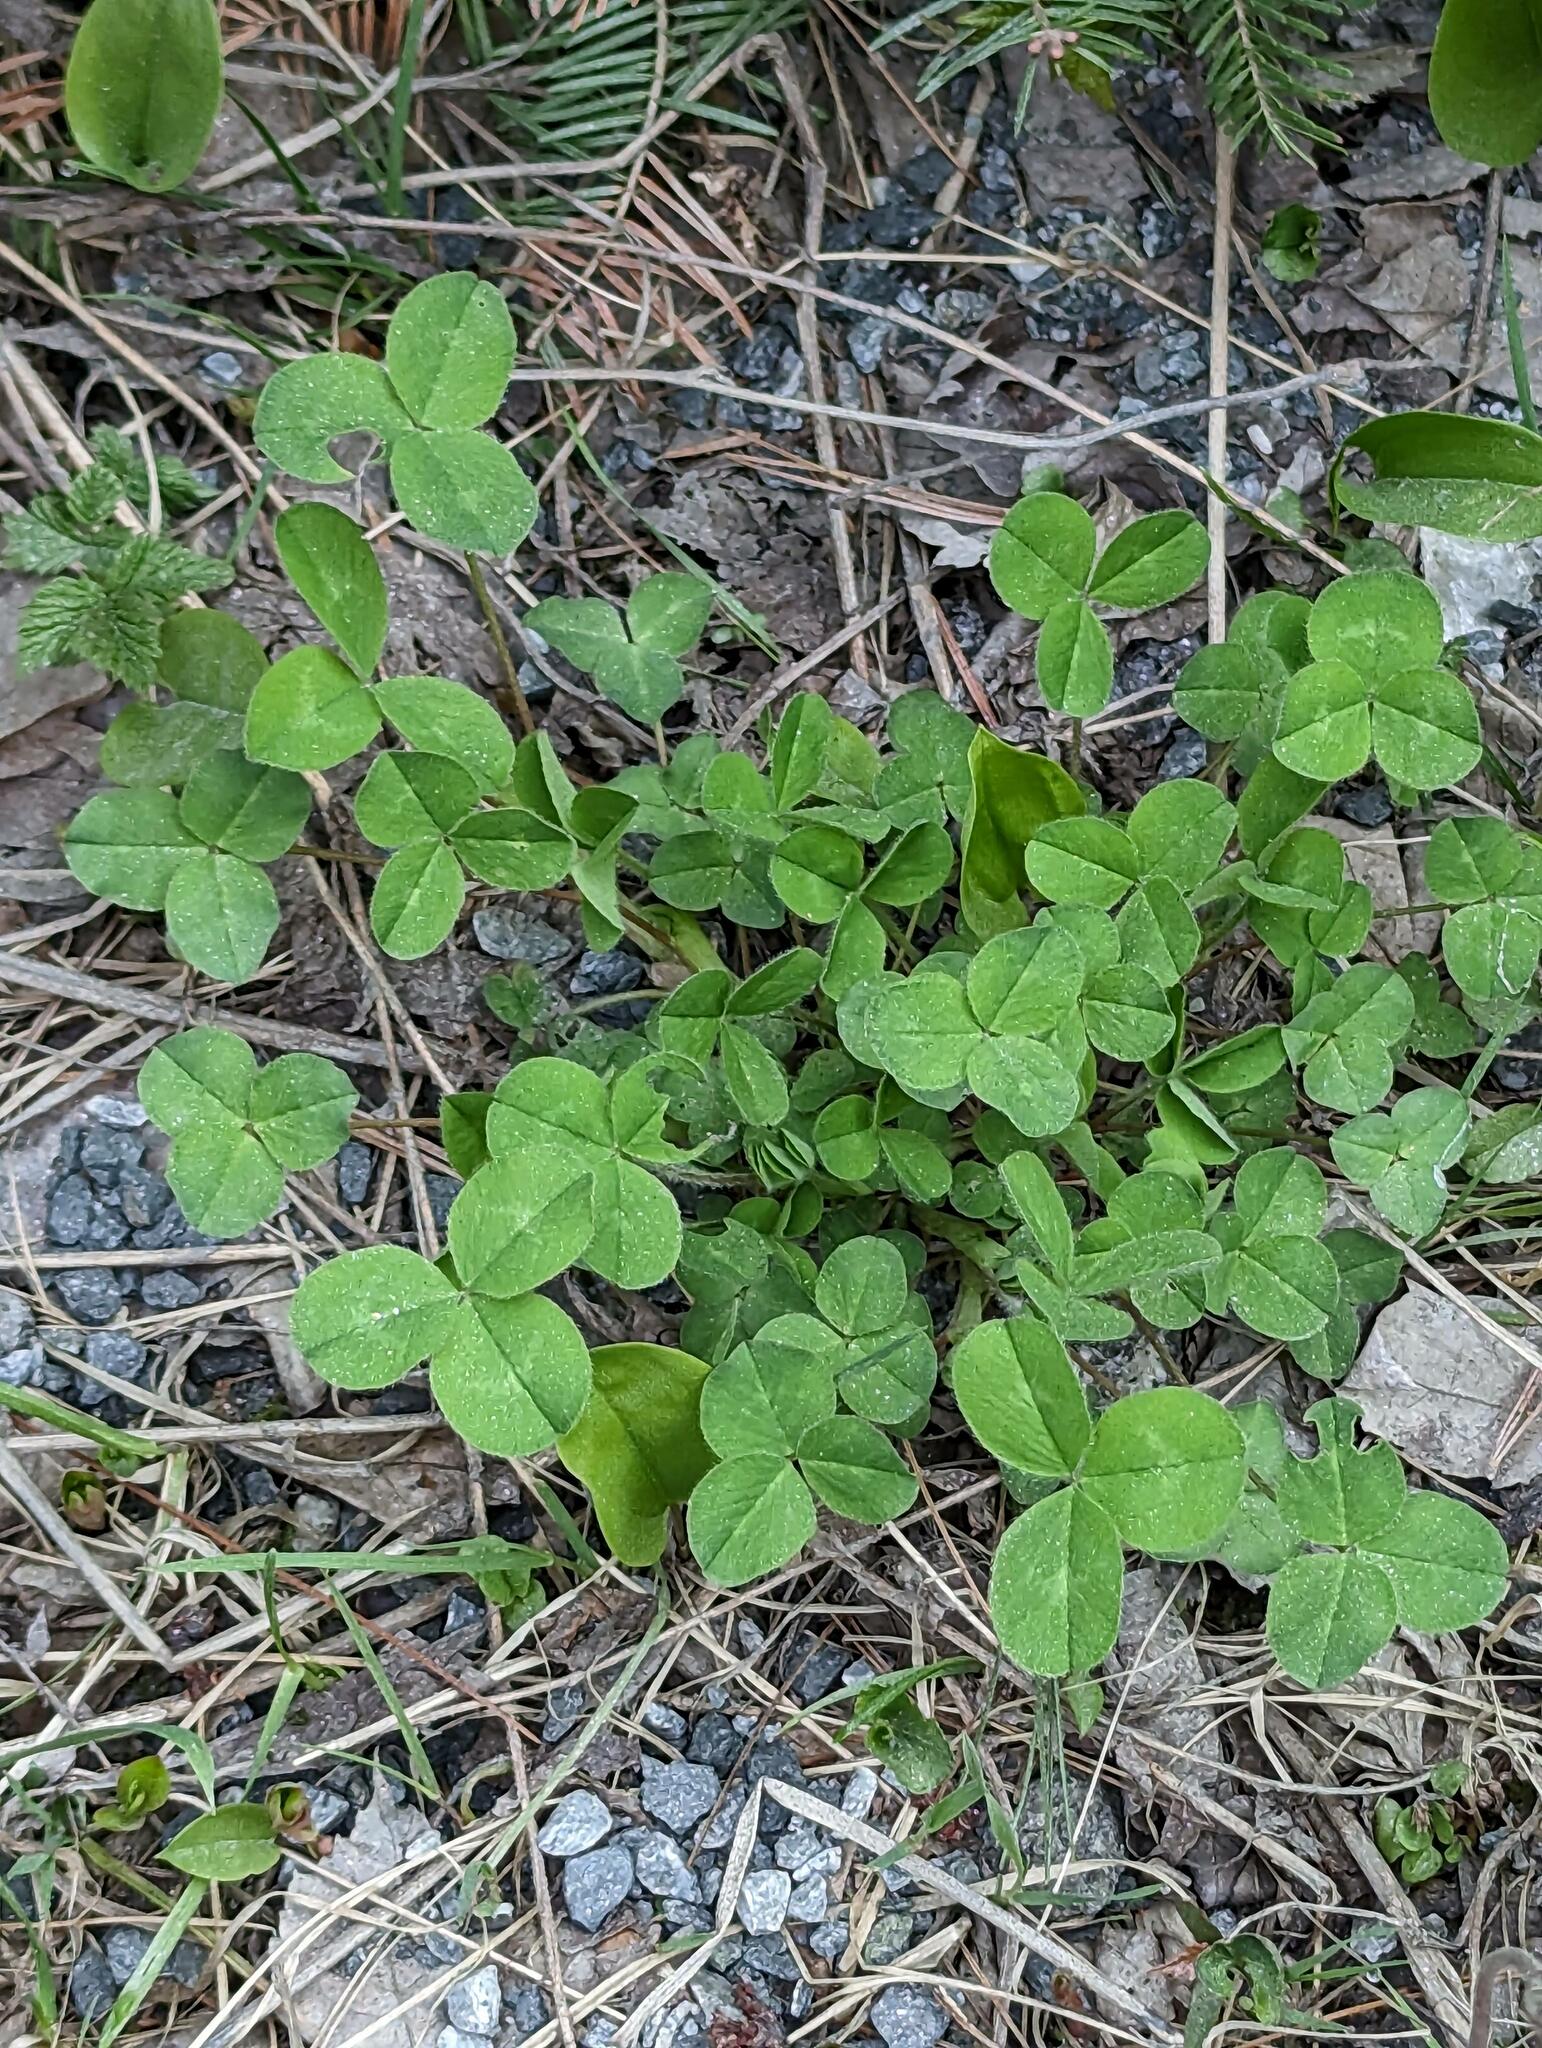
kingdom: Plantae
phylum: Tracheophyta
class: Magnoliopsida
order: Fabales
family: Fabaceae
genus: Trifolium
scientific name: Trifolium repens
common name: White clover
